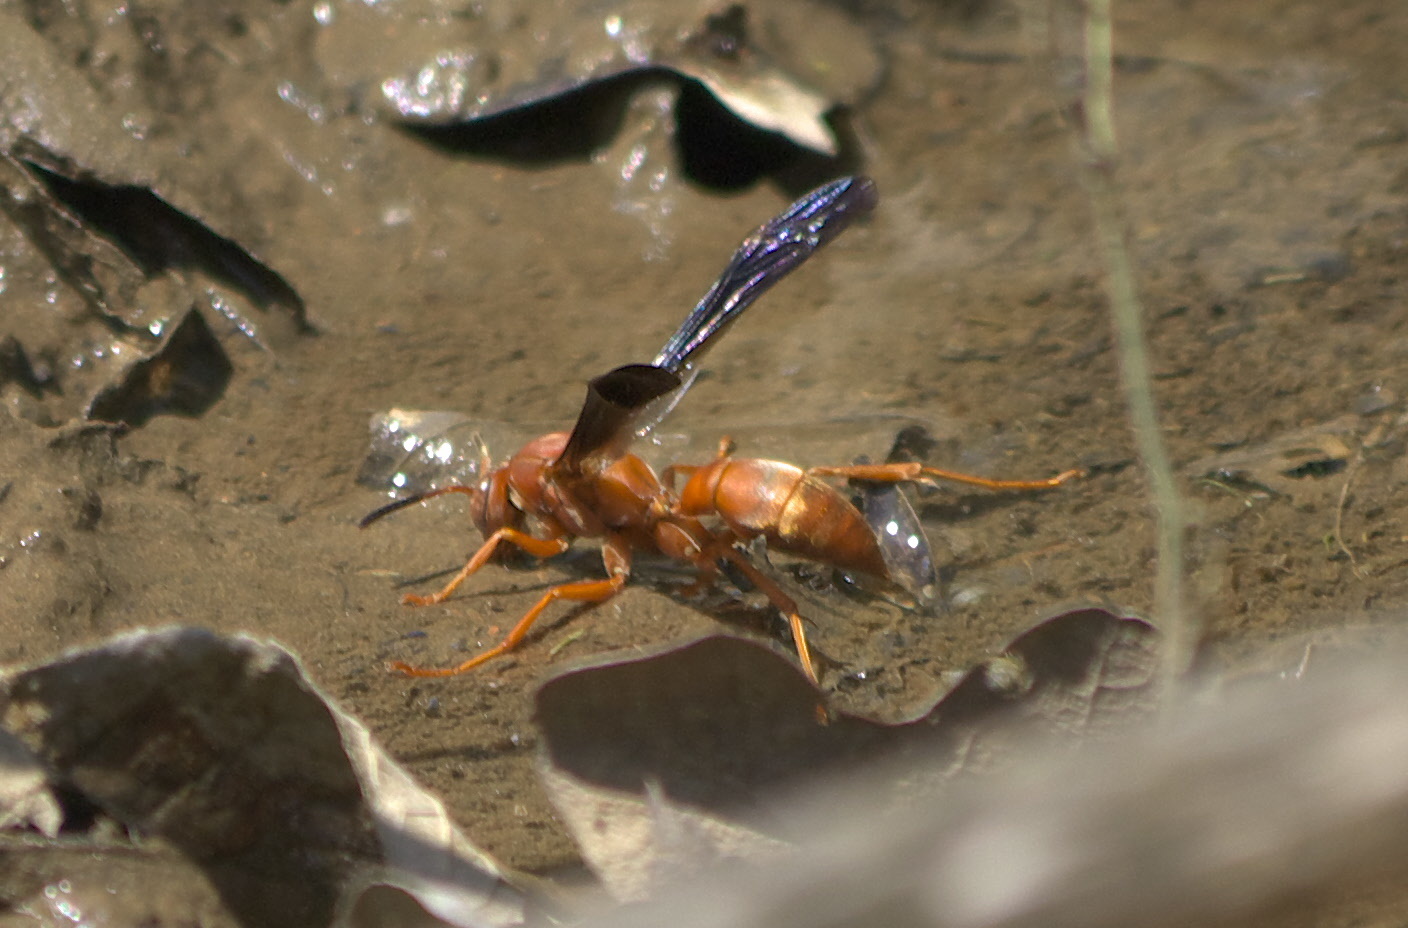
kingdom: Animalia
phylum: Arthropoda
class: Insecta
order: Hymenoptera
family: Vespidae
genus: Fuscopolistes
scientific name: Fuscopolistes
